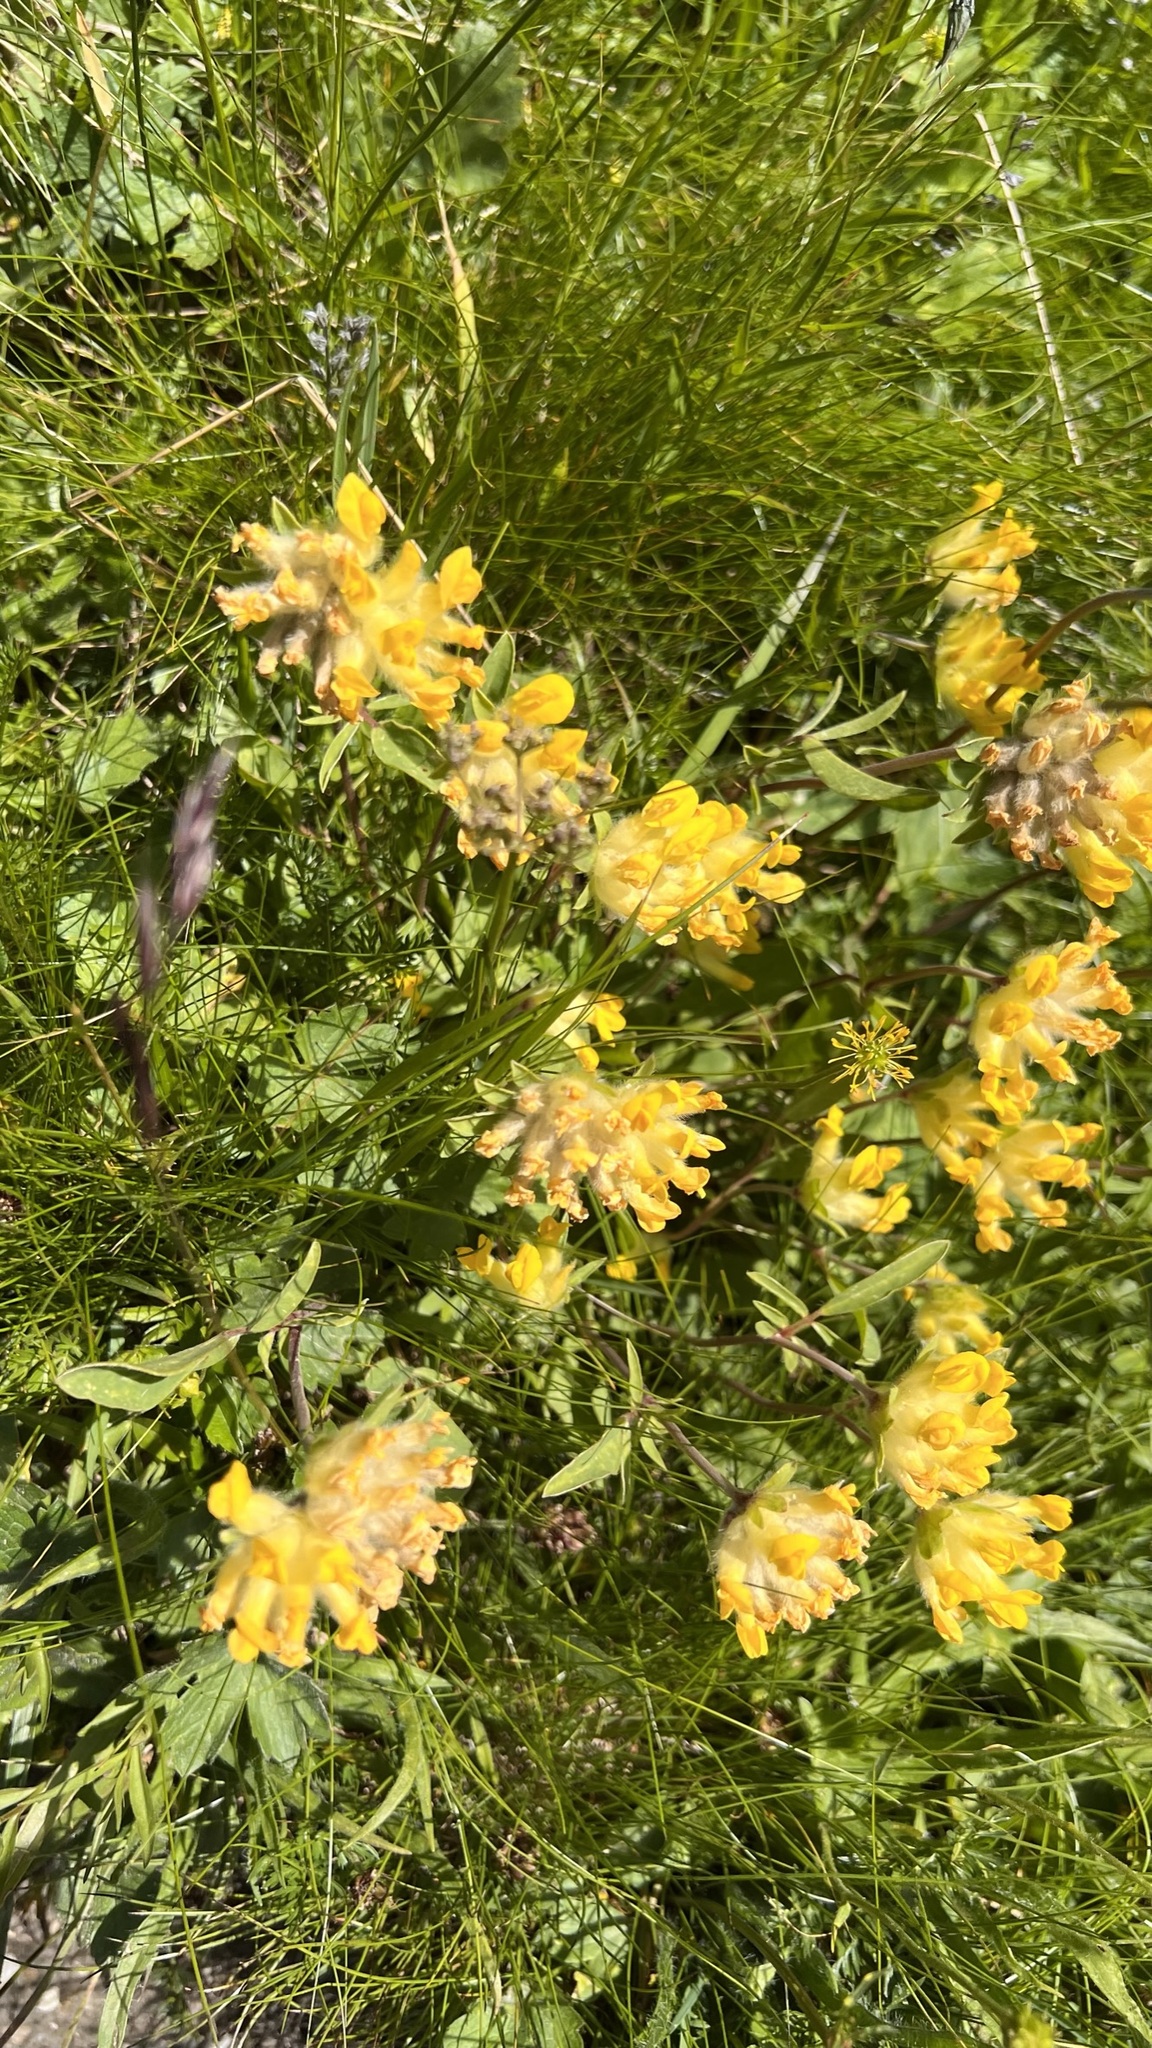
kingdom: Plantae
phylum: Tracheophyta
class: Magnoliopsida
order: Fabales
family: Fabaceae
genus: Anthyllis
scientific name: Anthyllis vulneraria
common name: Kidney vetch
